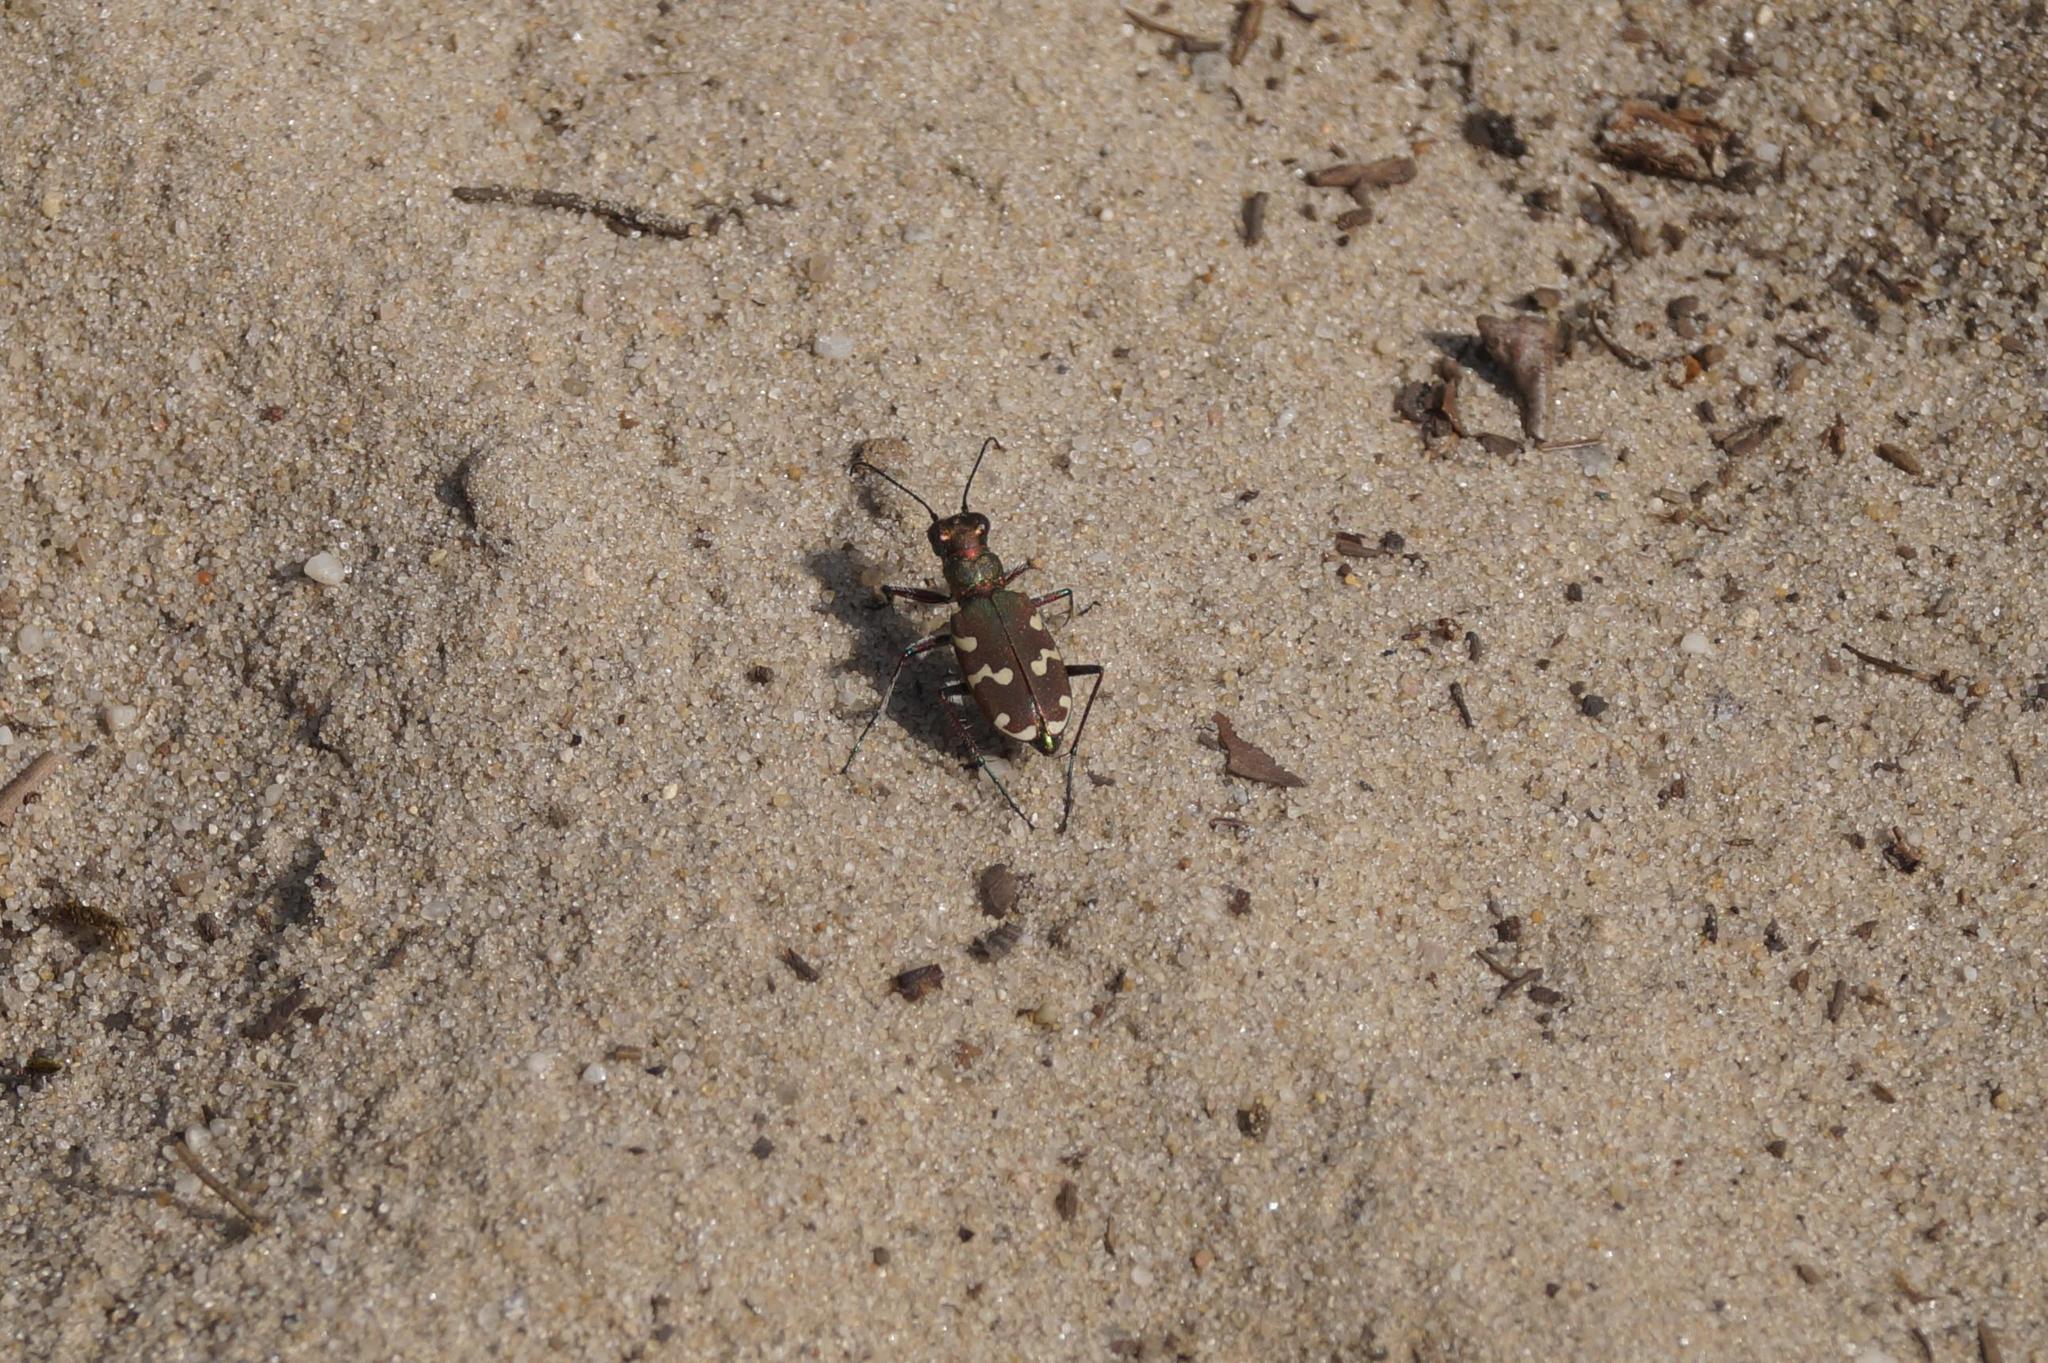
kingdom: Animalia
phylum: Arthropoda
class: Insecta
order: Coleoptera
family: Carabidae
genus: Cicindela
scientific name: Cicindela hybrida
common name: Northern dune tiger beetle
